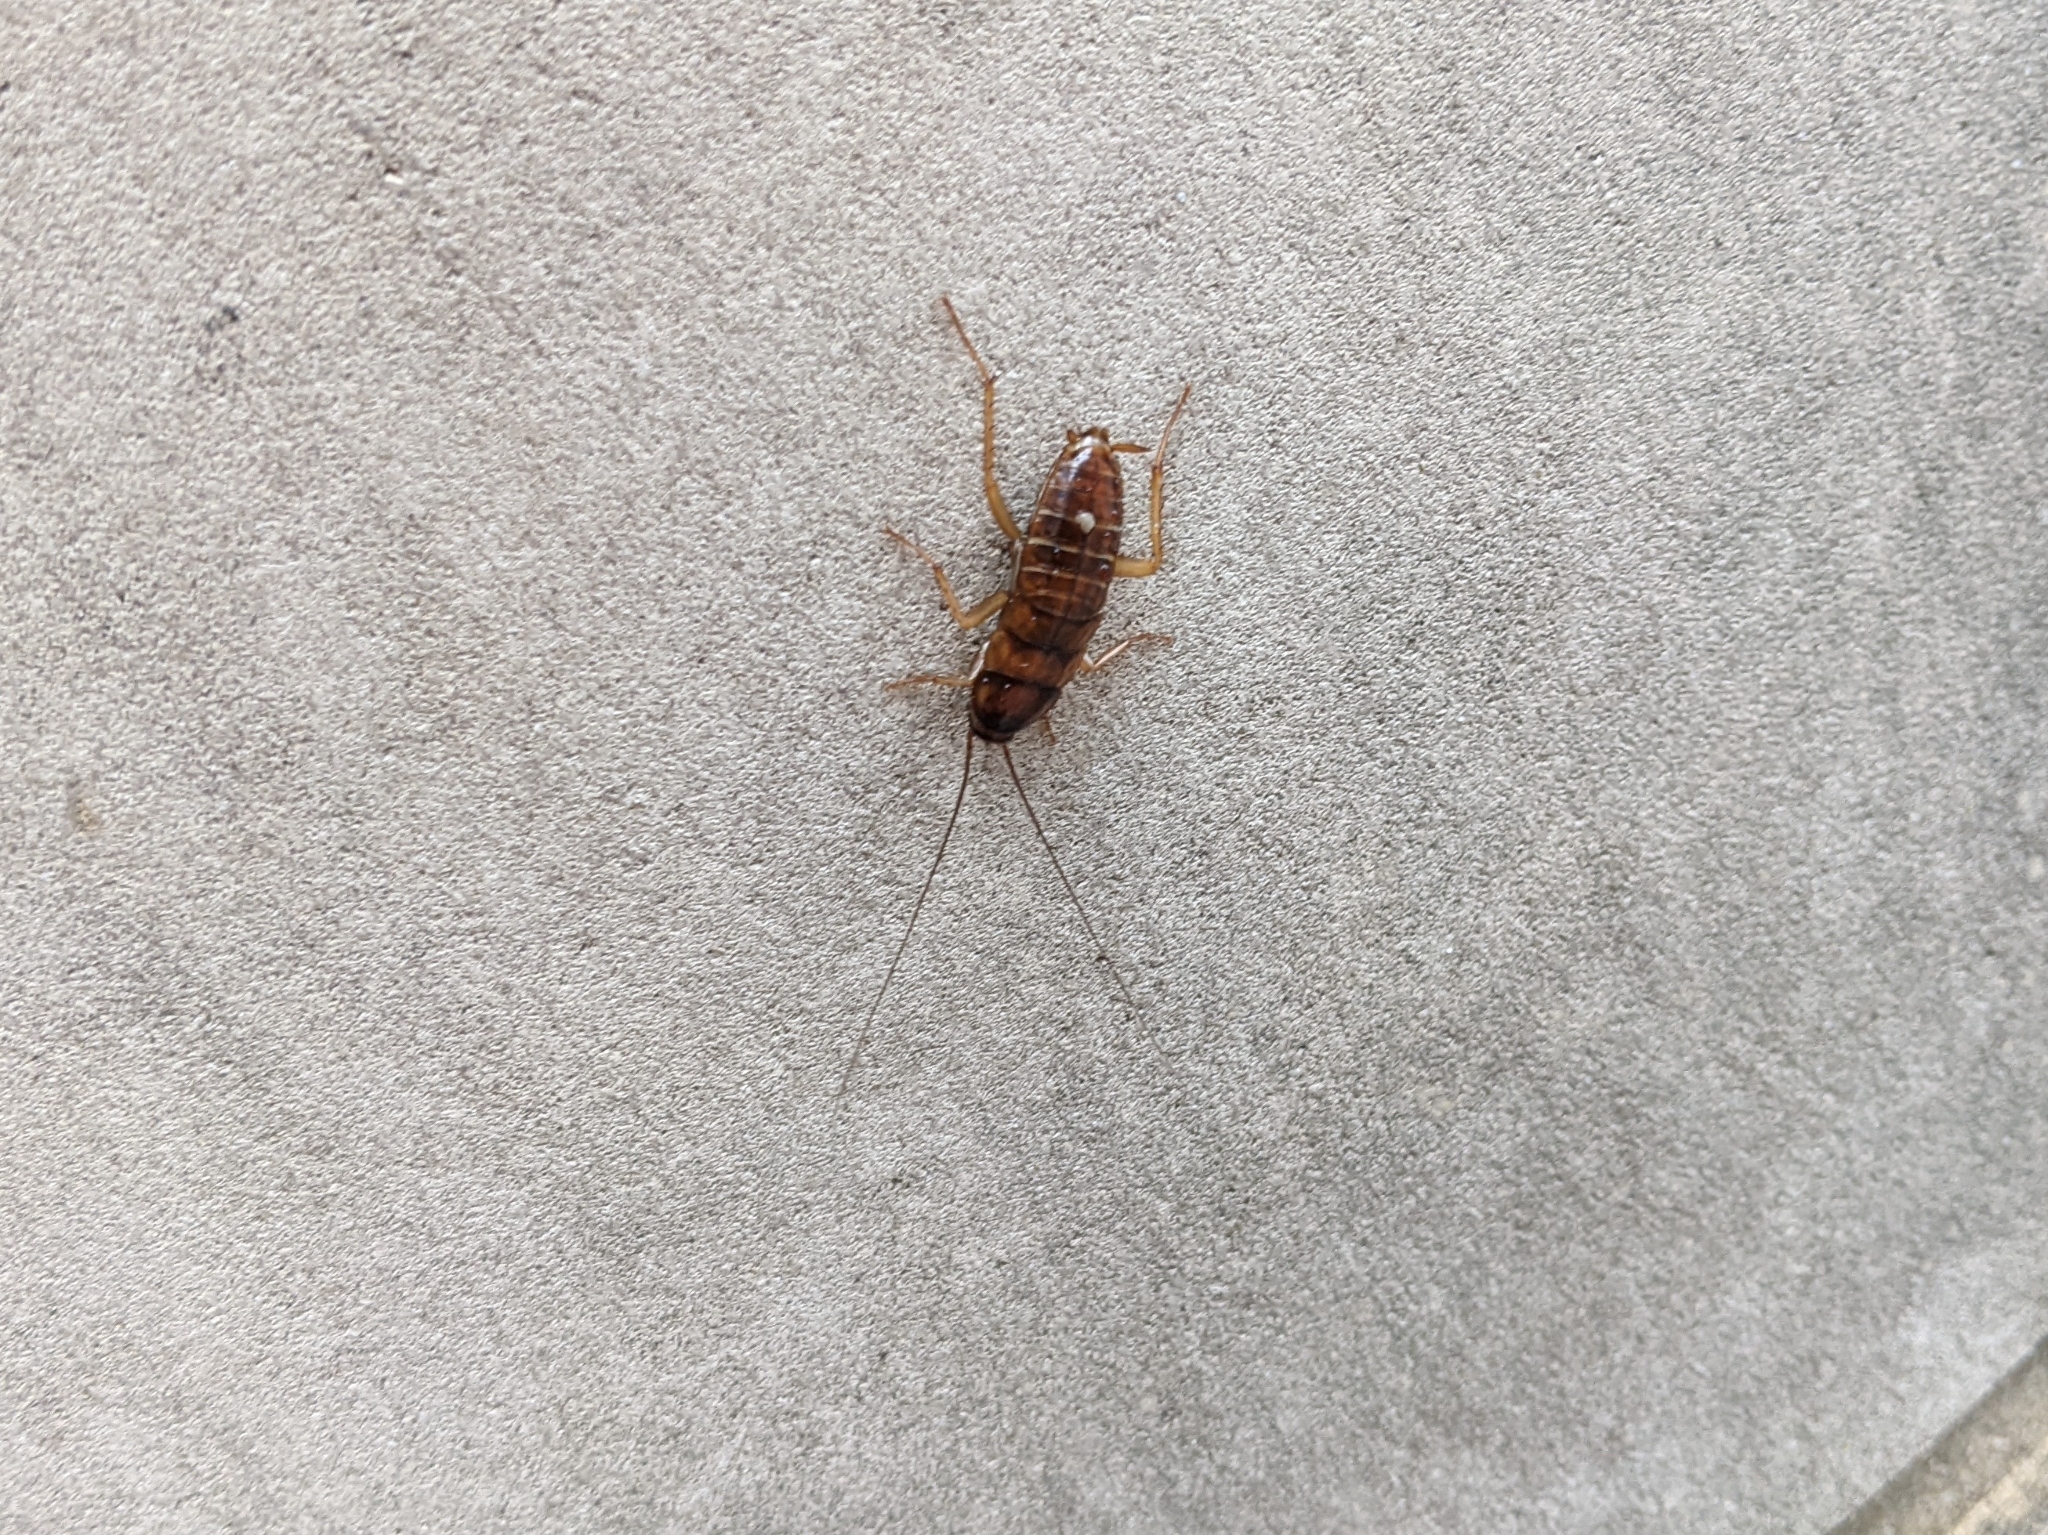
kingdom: Animalia
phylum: Arthropoda
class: Insecta
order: Blattodea
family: Blattidae
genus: Periplaneta
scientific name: Periplaneta americana
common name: American cockroach
